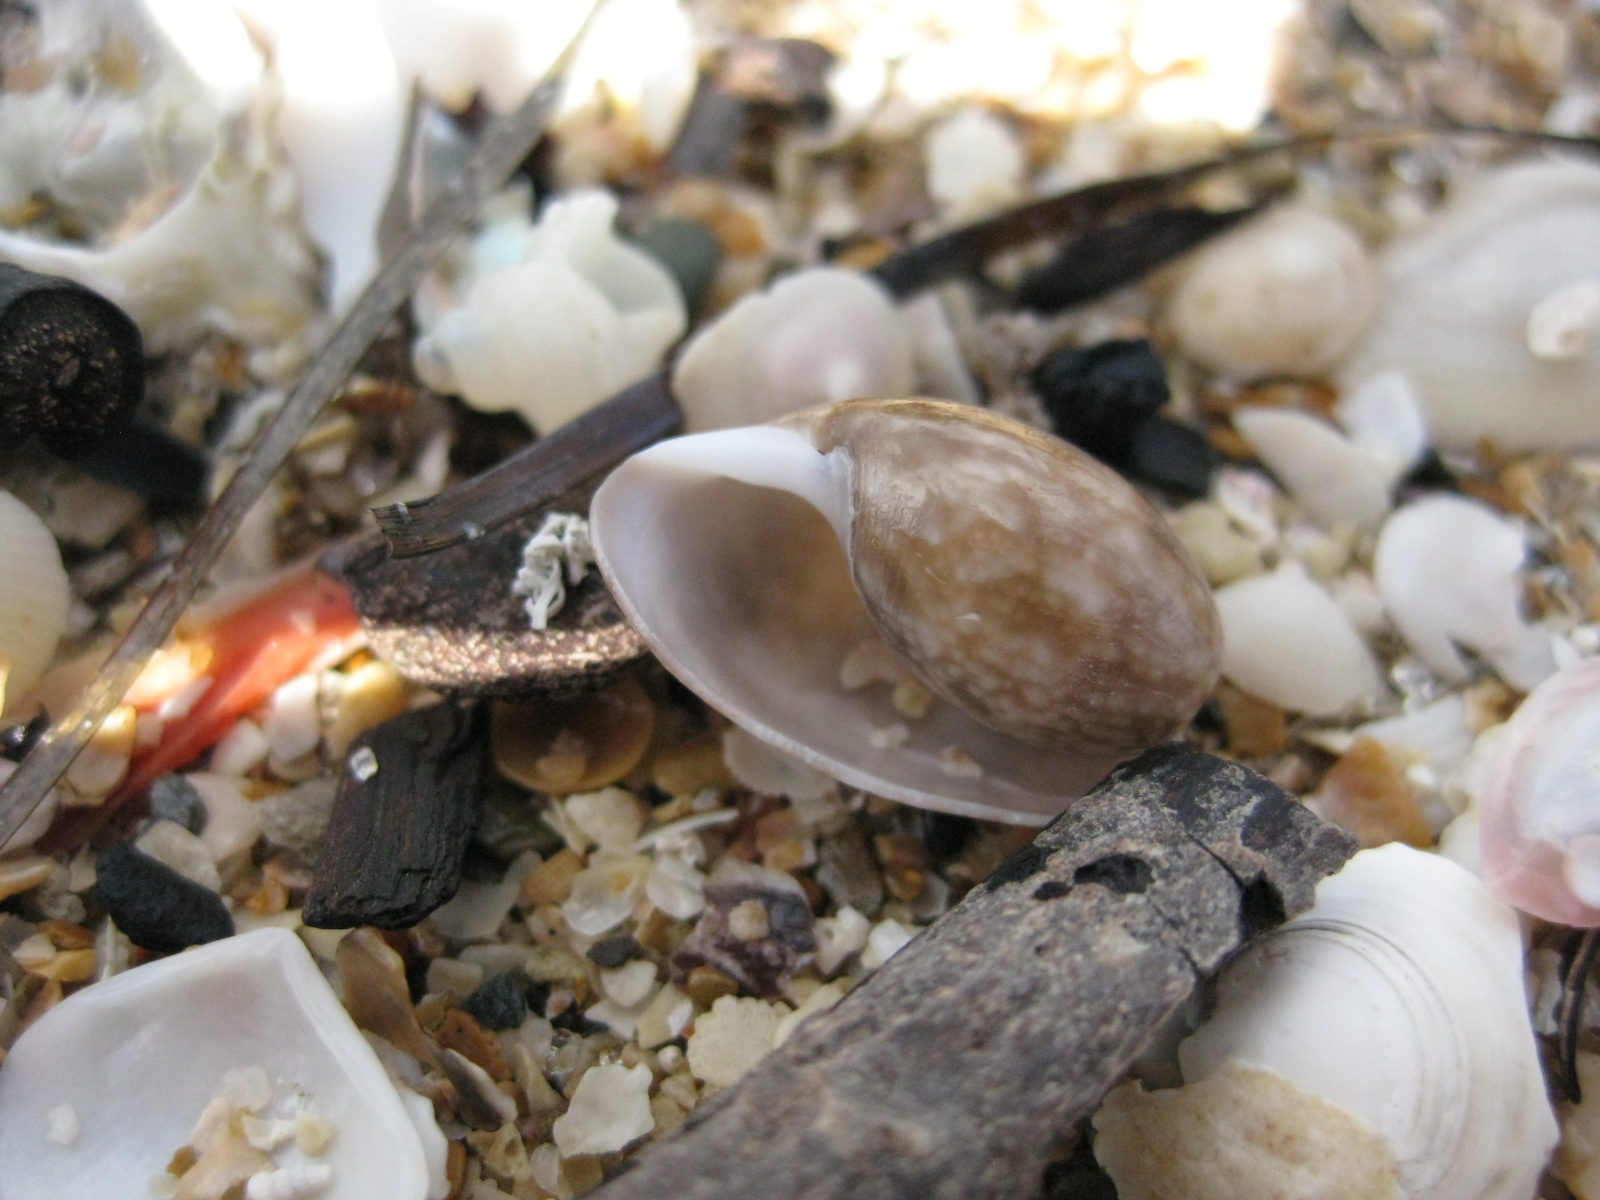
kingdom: Animalia
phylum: Mollusca
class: Gastropoda
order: Cephalaspidea
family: Bullidae
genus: Bulla
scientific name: Bulla quoyii
